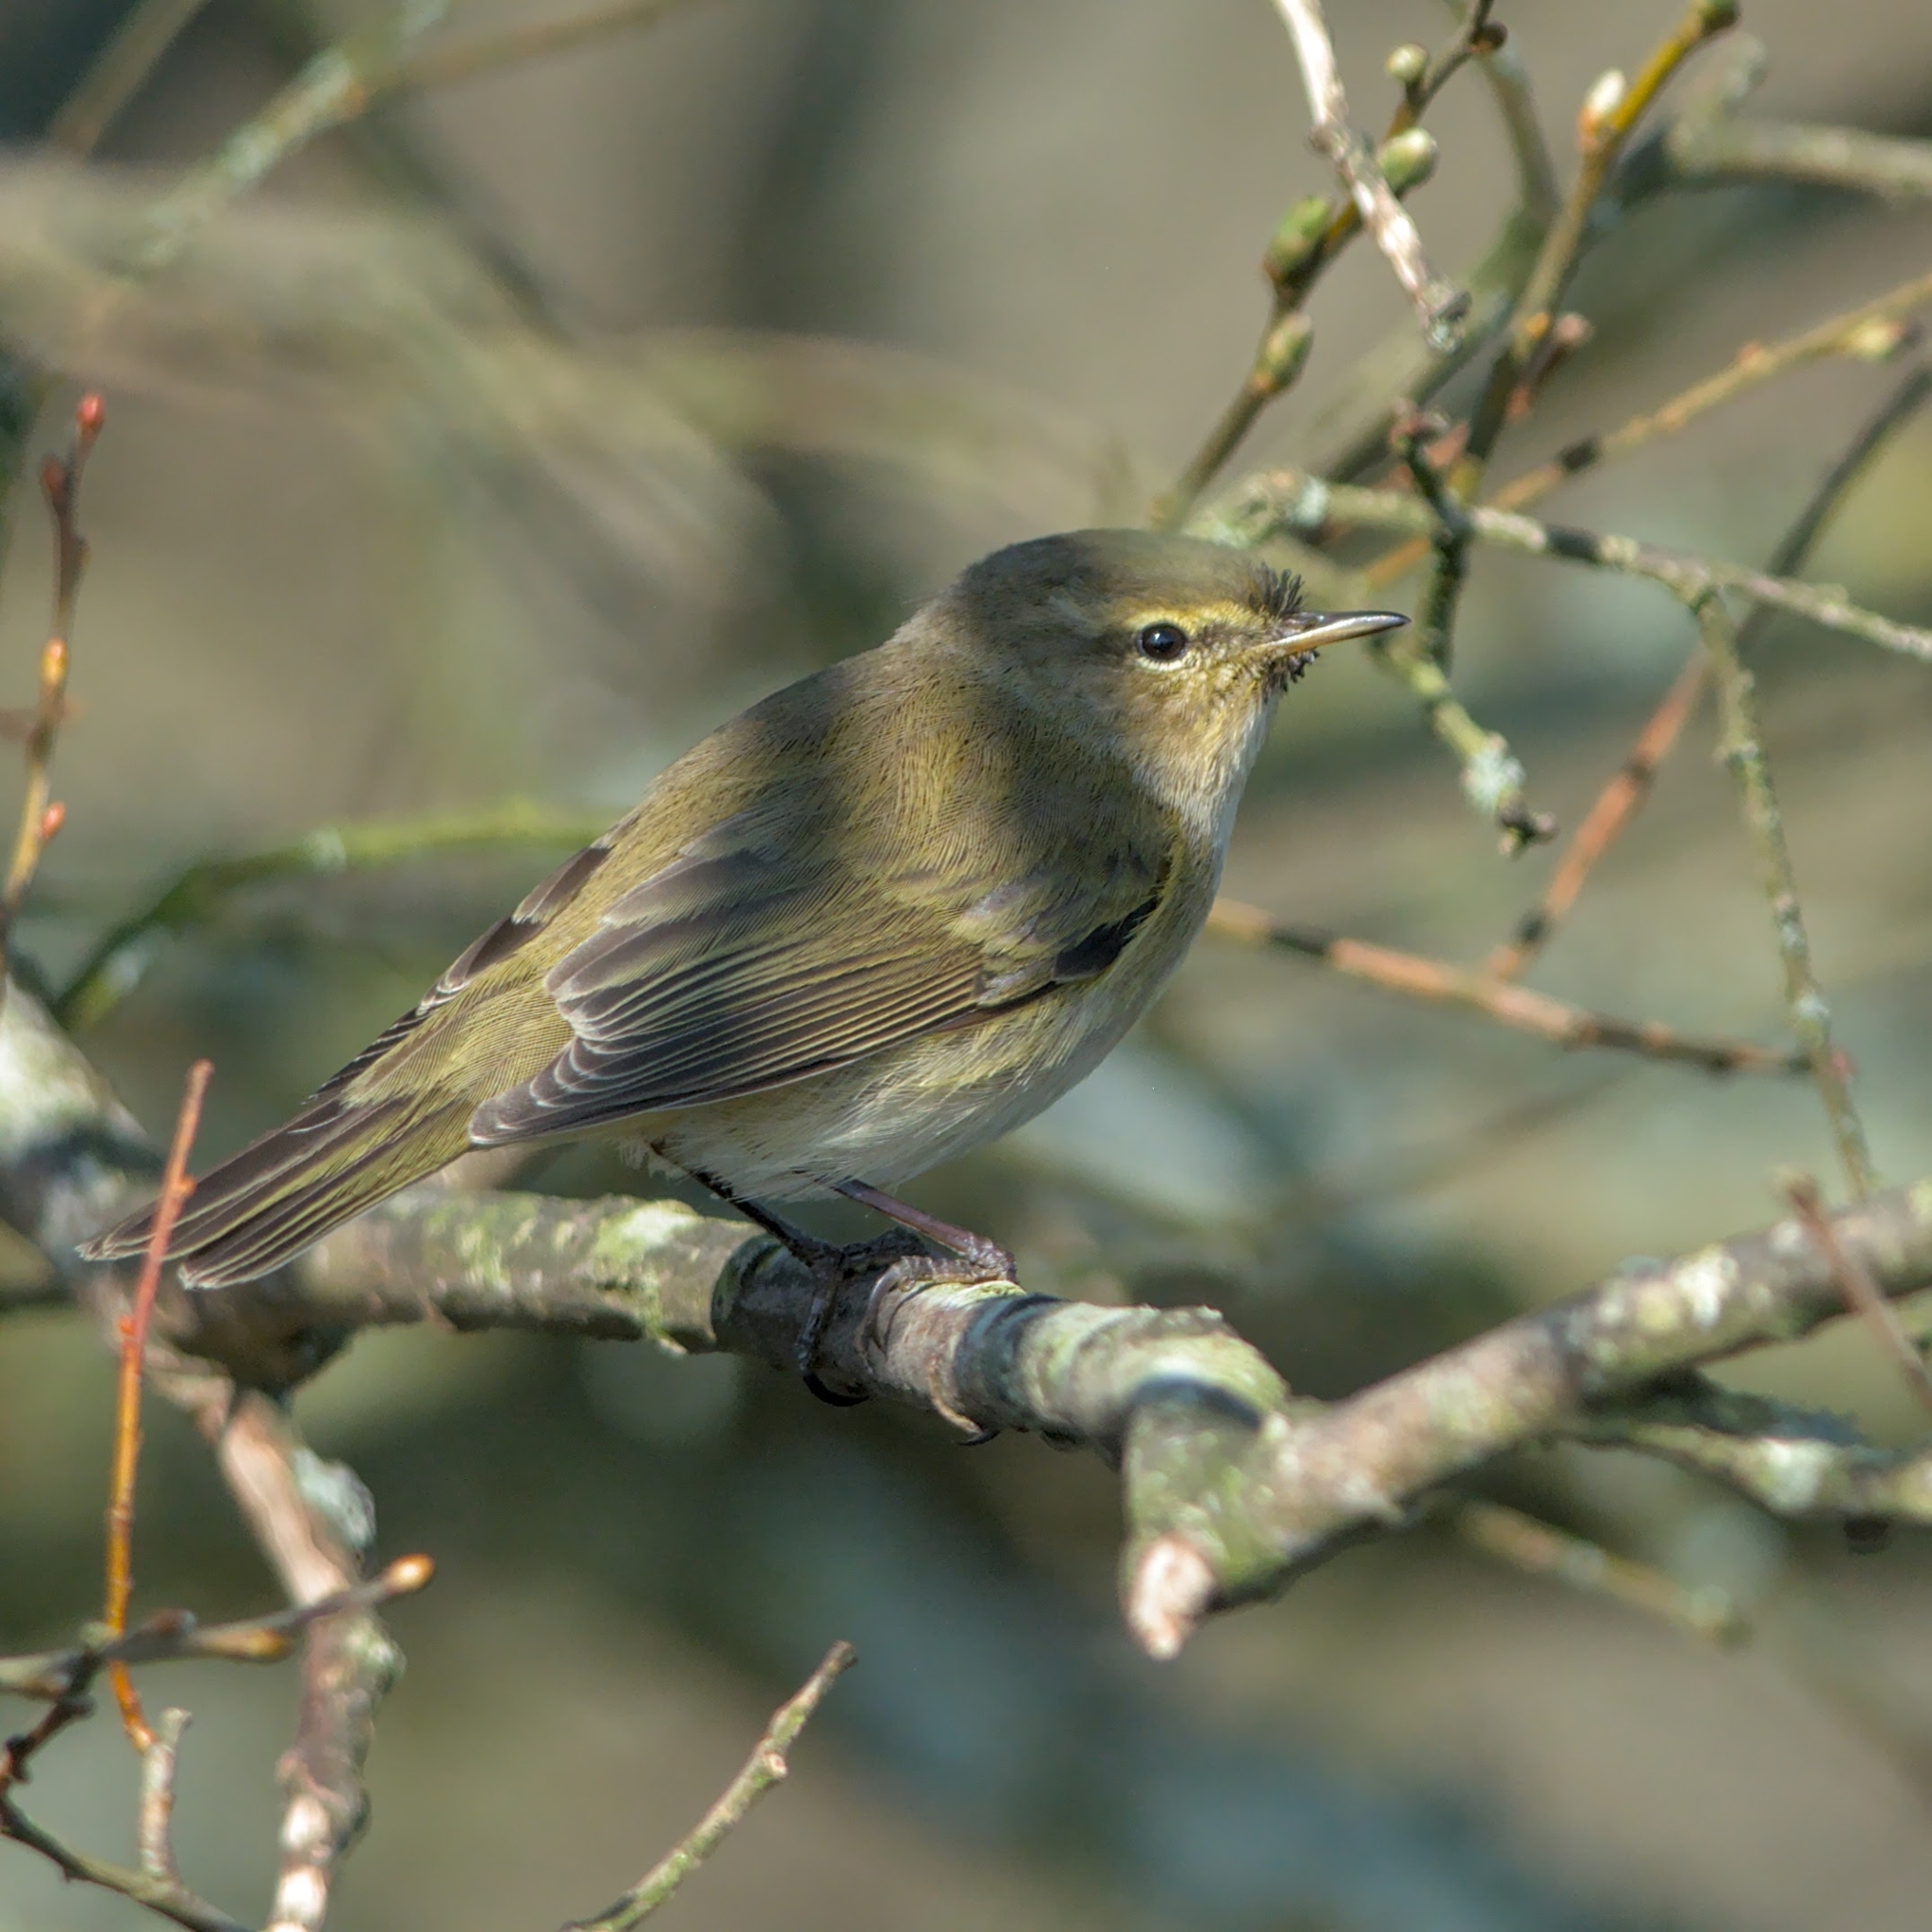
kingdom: Animalia
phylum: Chordata
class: Aves
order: Passeriformes
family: Phylloscopidae
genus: Phylloscopus
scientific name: Phylloscopus collybita
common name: Common chiffchaff
